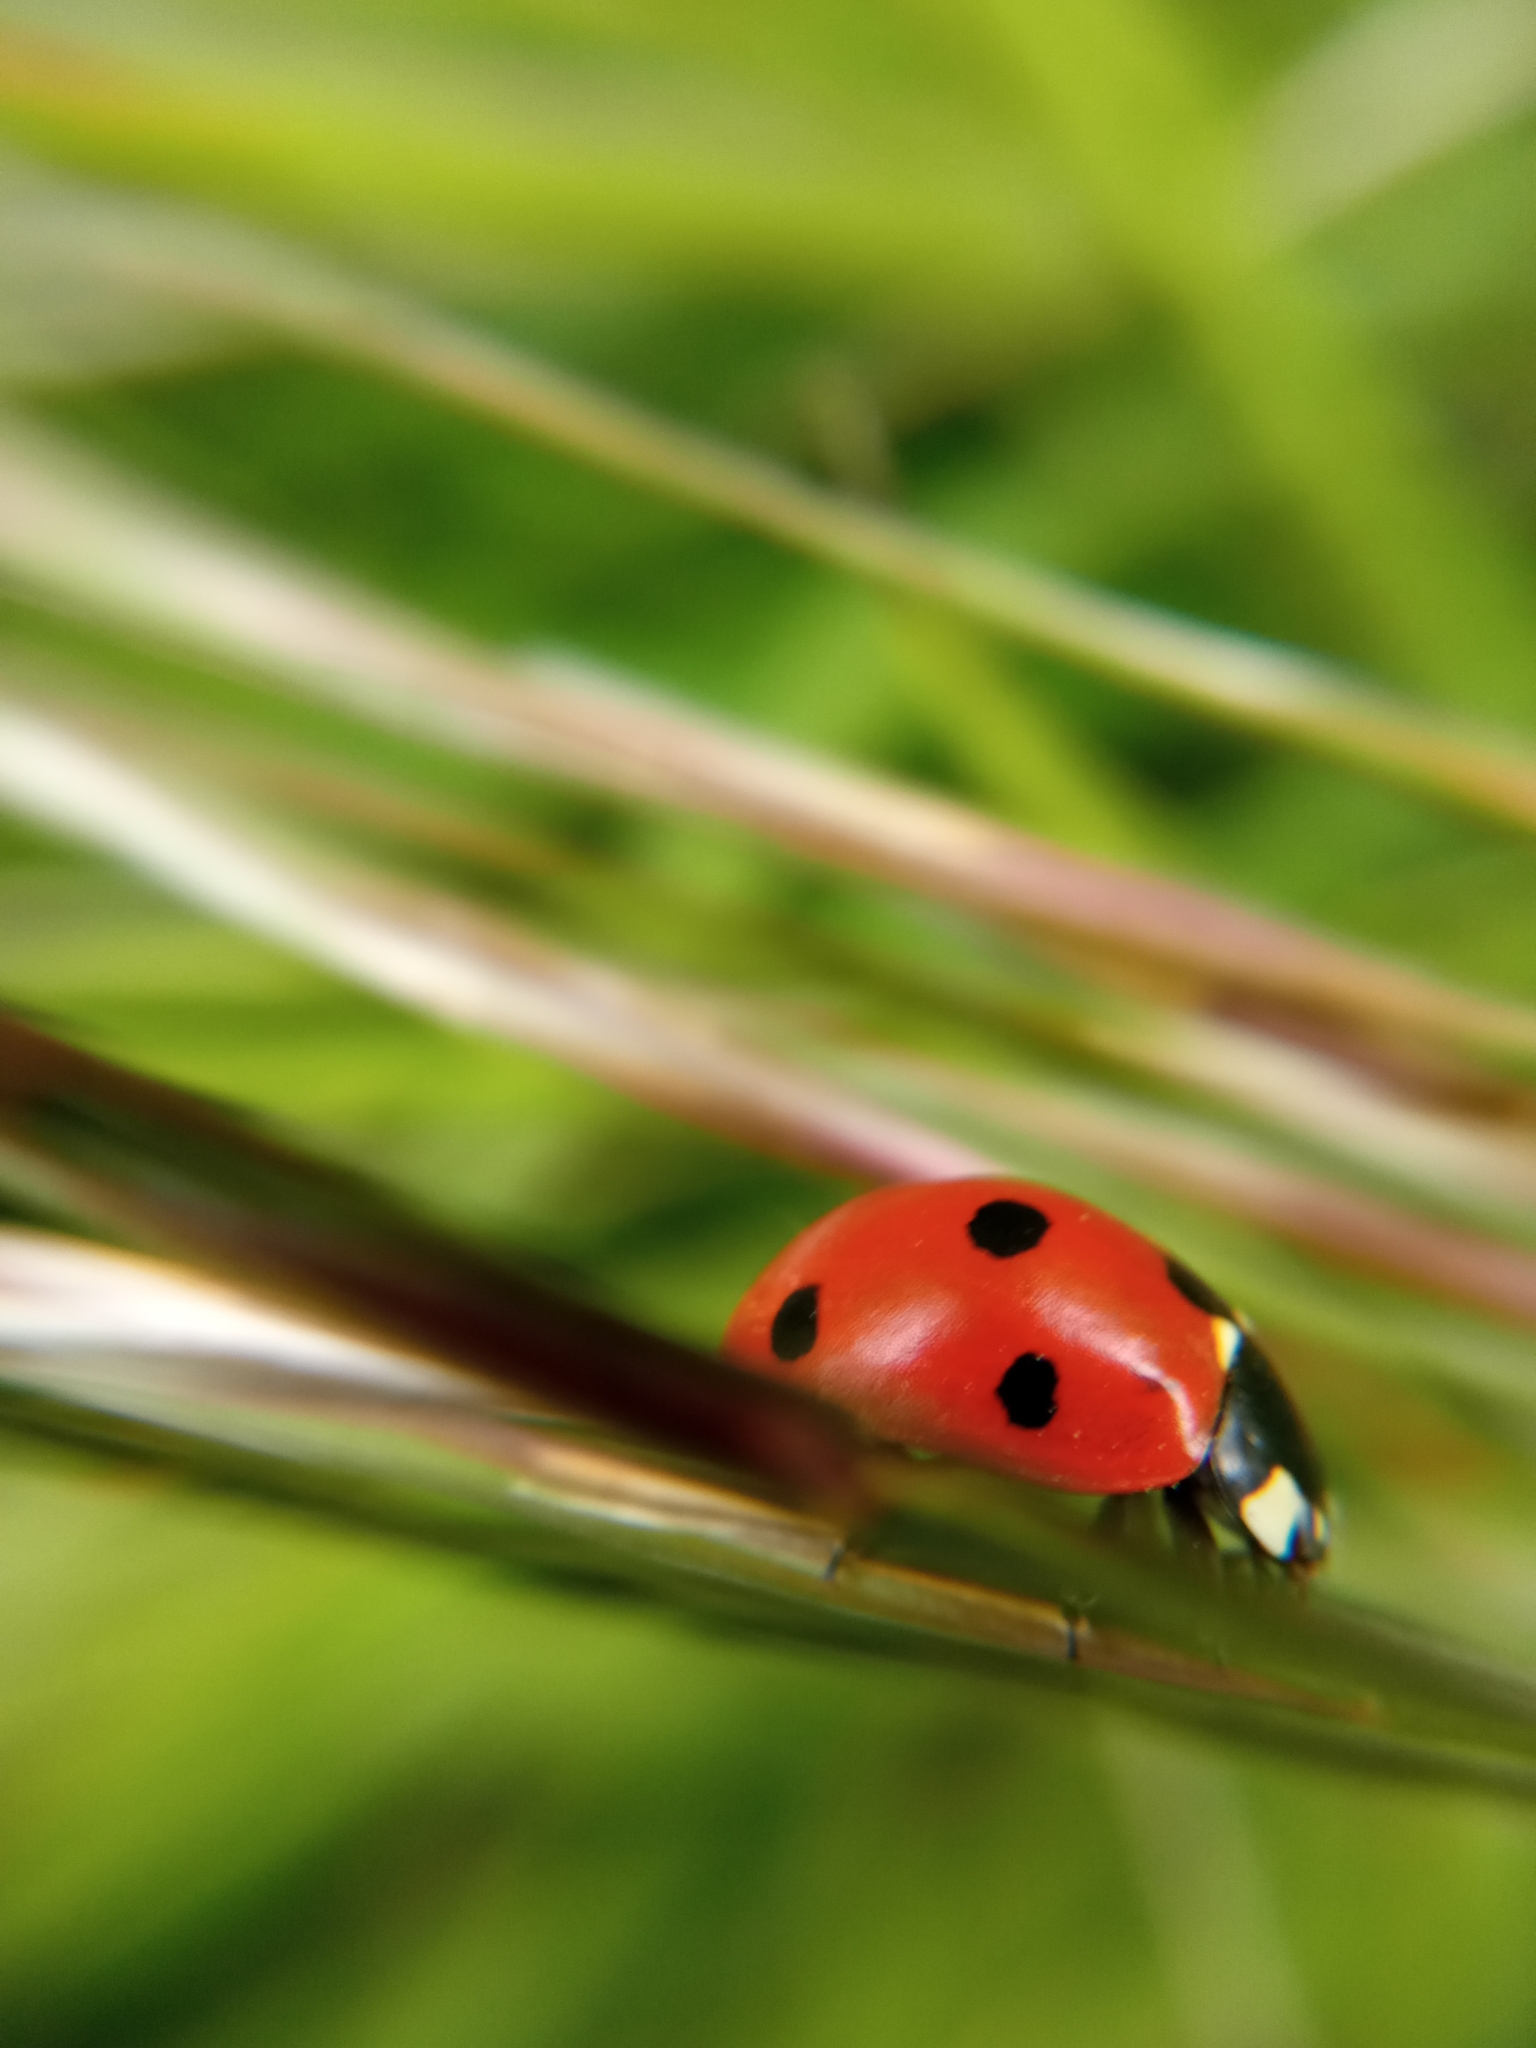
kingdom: Animalia
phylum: Arthropoda
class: Insecta
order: Coleoptera
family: Coccinellidae
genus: Coccinella
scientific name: Coccinella septempunctata
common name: Sevenspotted lady beetle
